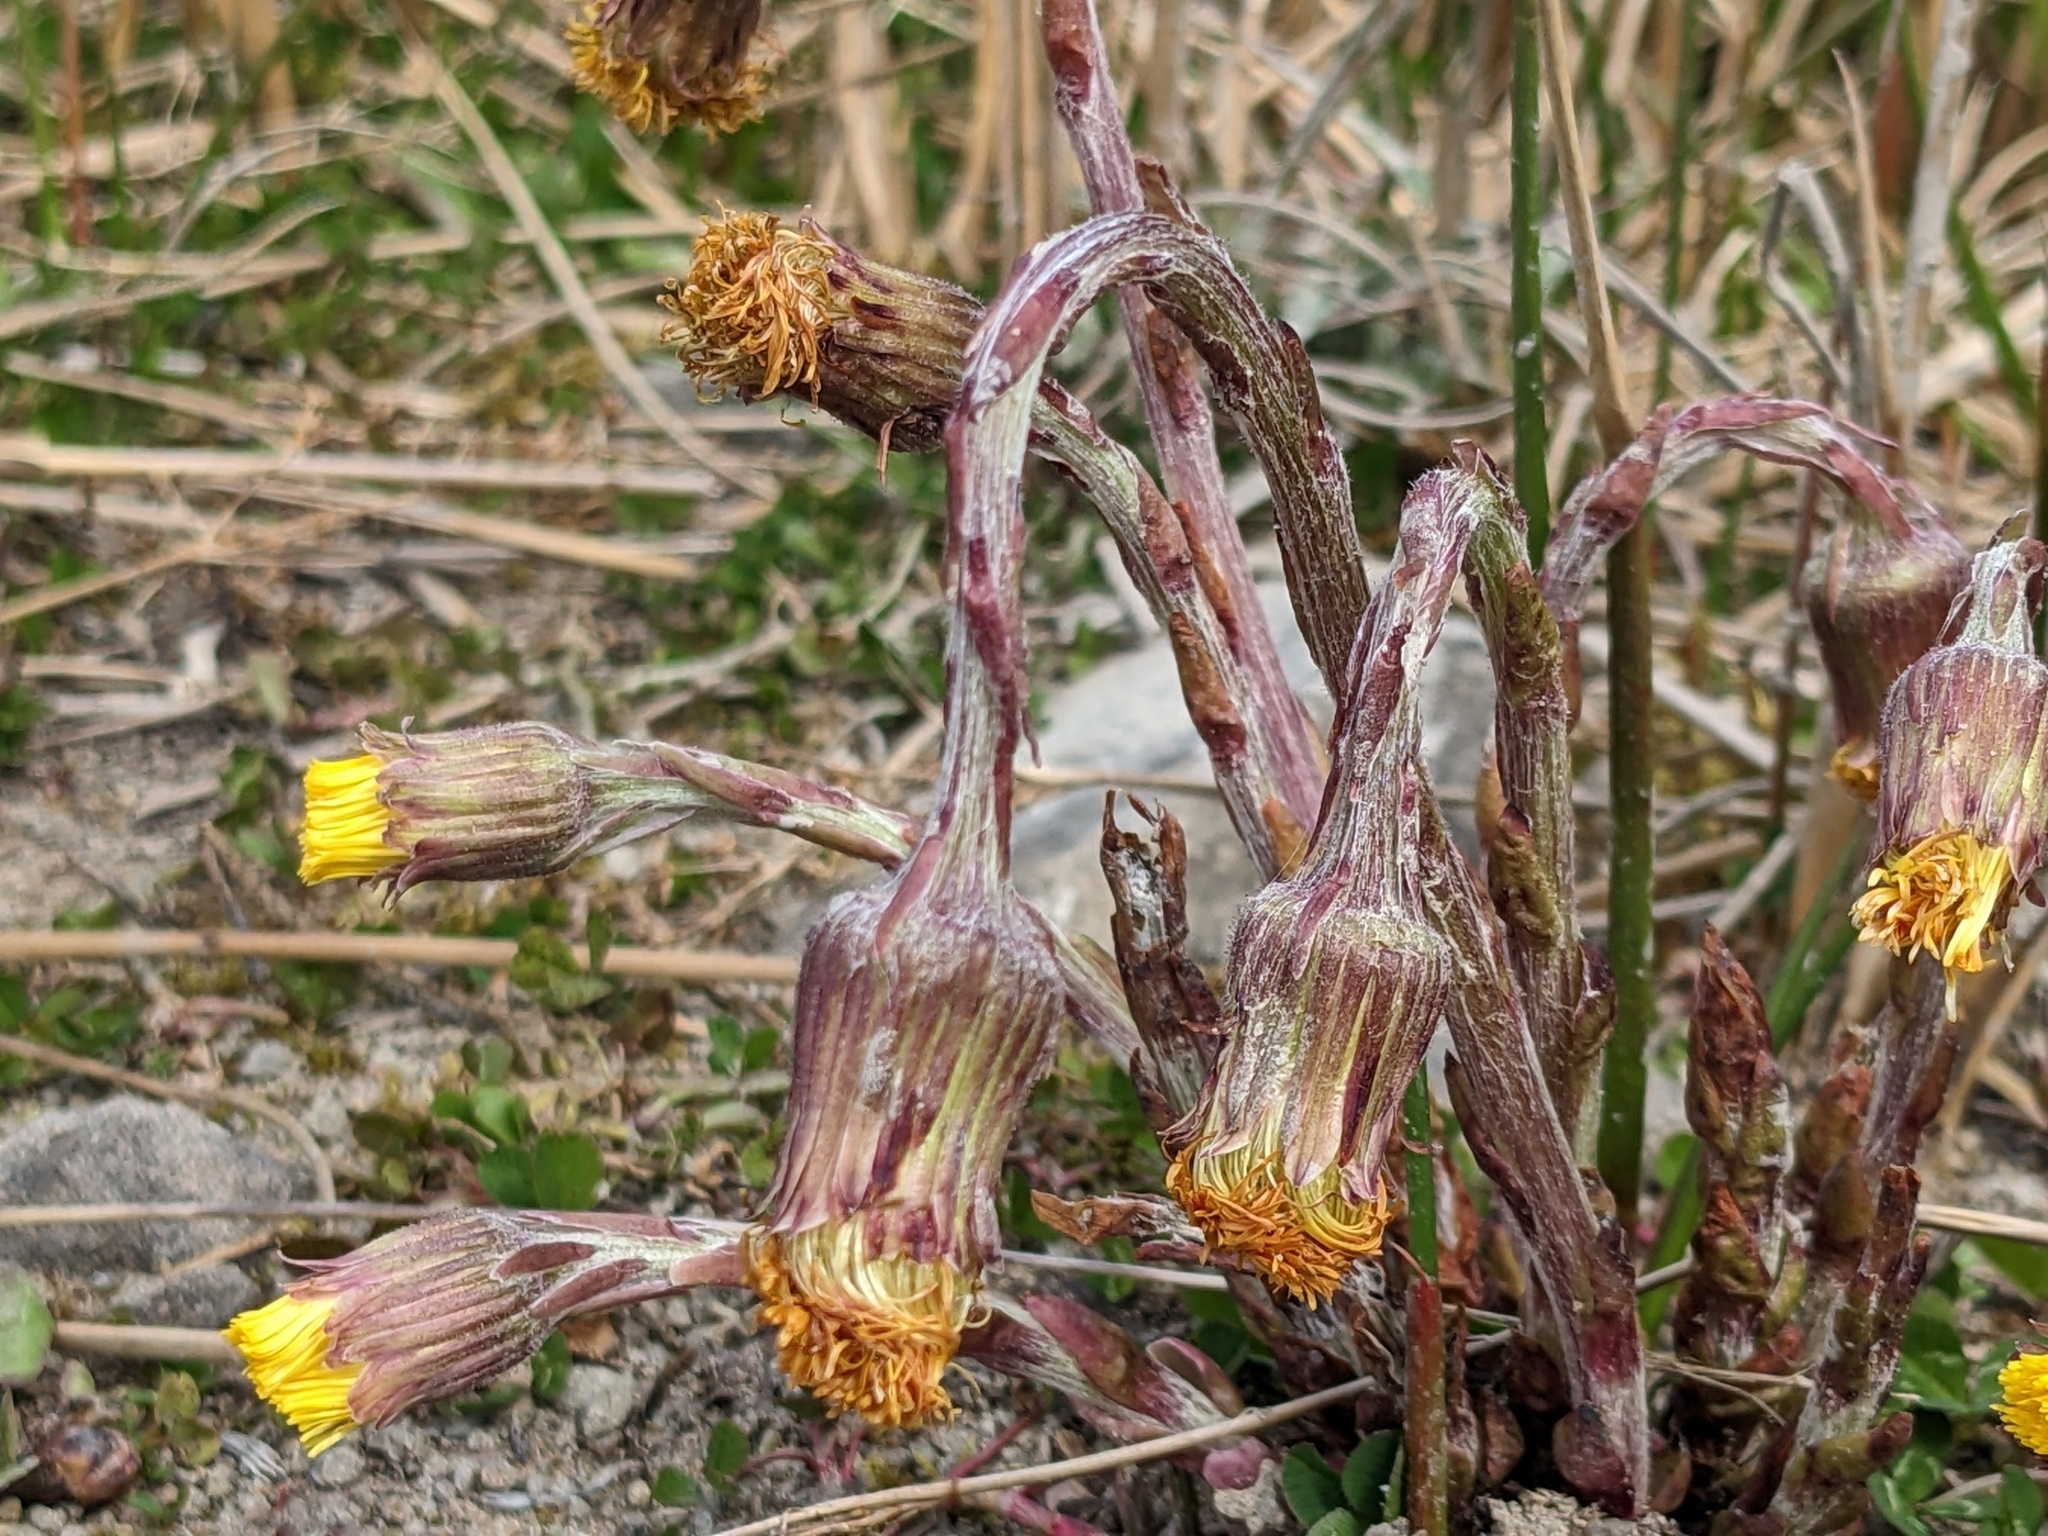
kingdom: Plantae
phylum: Tracheophyta
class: Magnoliopsida
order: Asterales
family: Asteraceae
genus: Tussilago
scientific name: Tussilago farfara
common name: Coltsfoot
